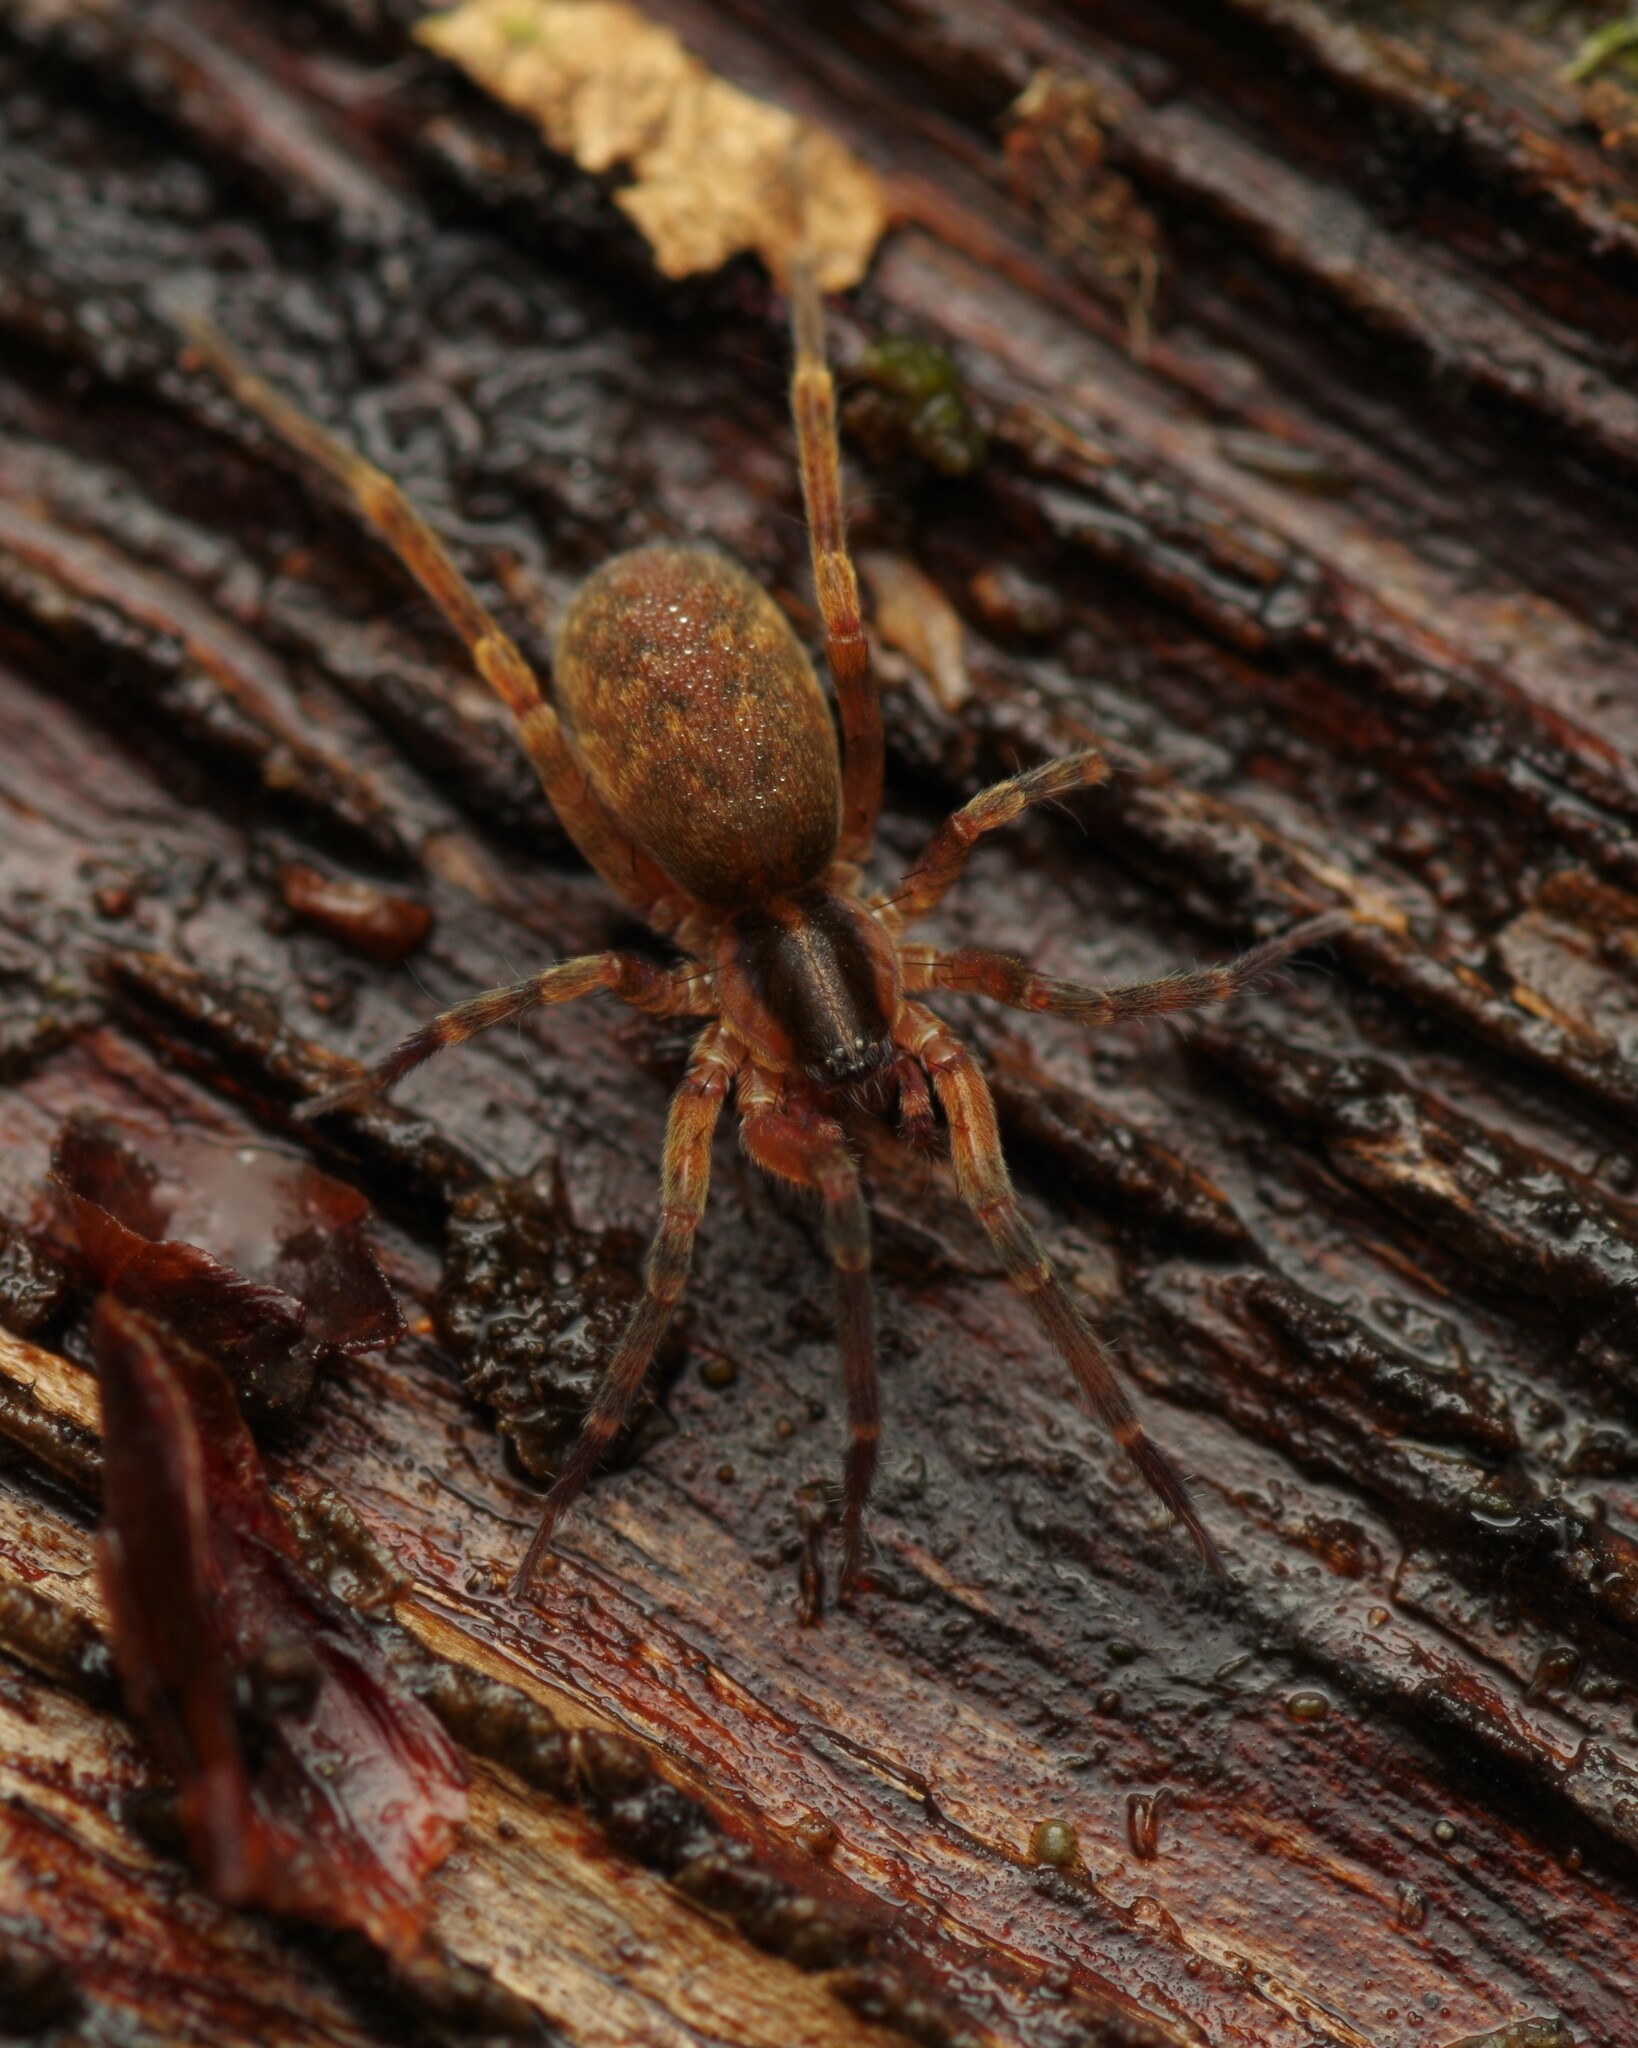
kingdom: Animalia
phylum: Arthropoda
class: Arachnida
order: Araneae
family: Liocranidae
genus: Scotina
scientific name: Scotina celans
